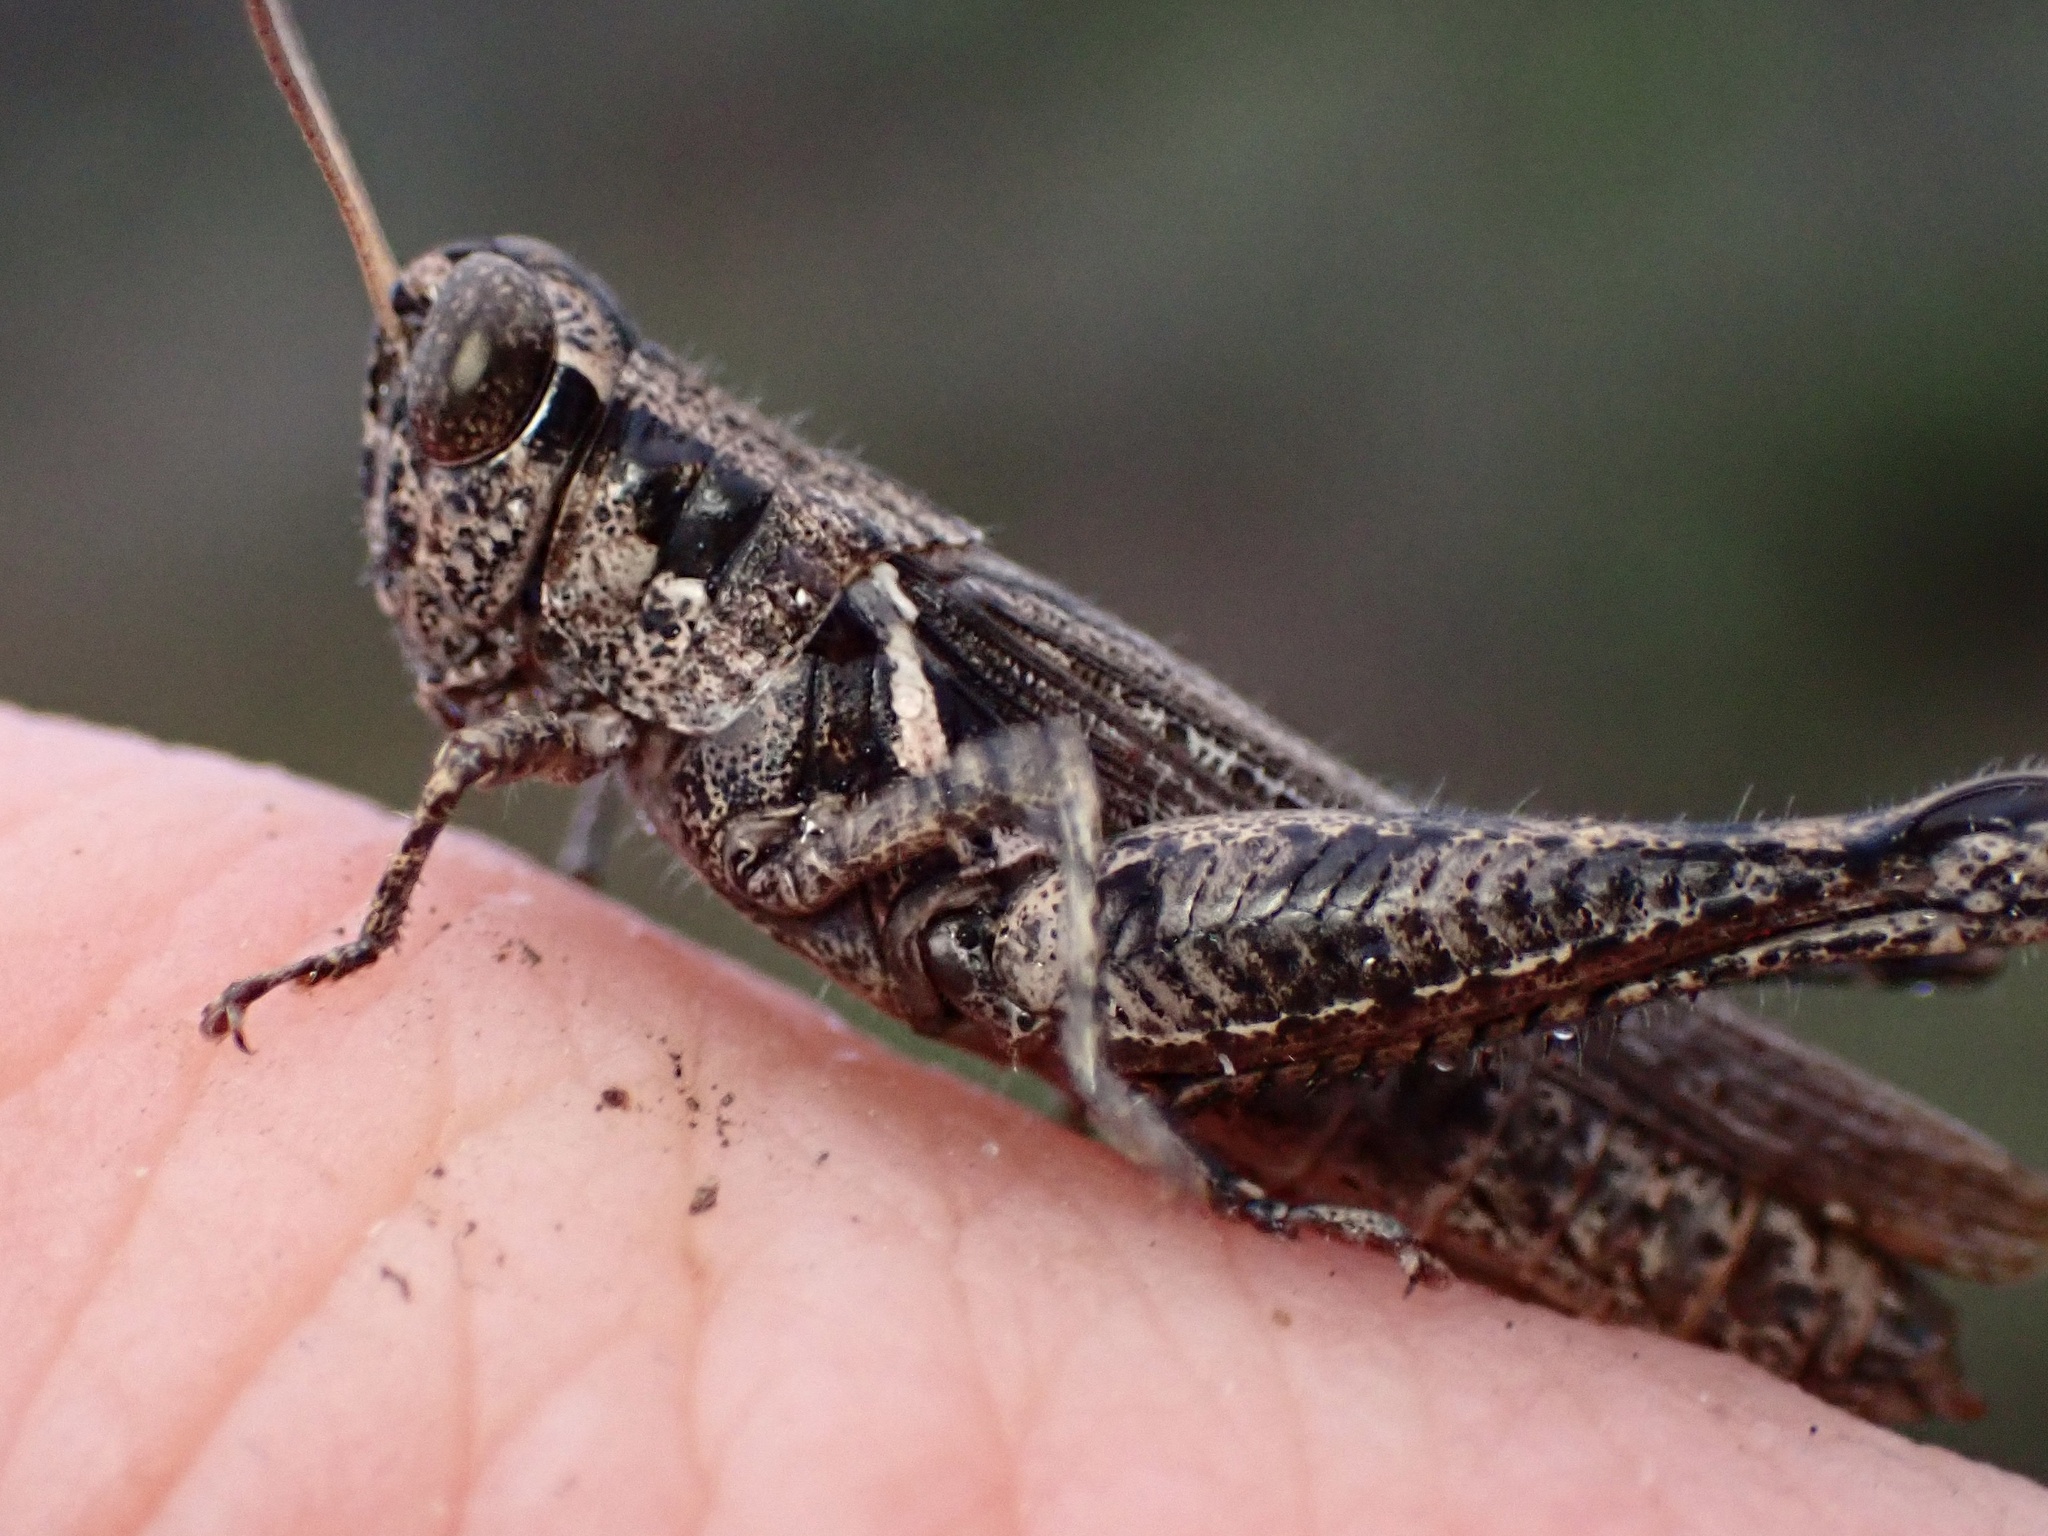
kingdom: Animalia
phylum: Arthropoda
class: Insecta
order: Orthoptera
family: Acrididae
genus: Melanoplus
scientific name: Melanoplus cinereus
